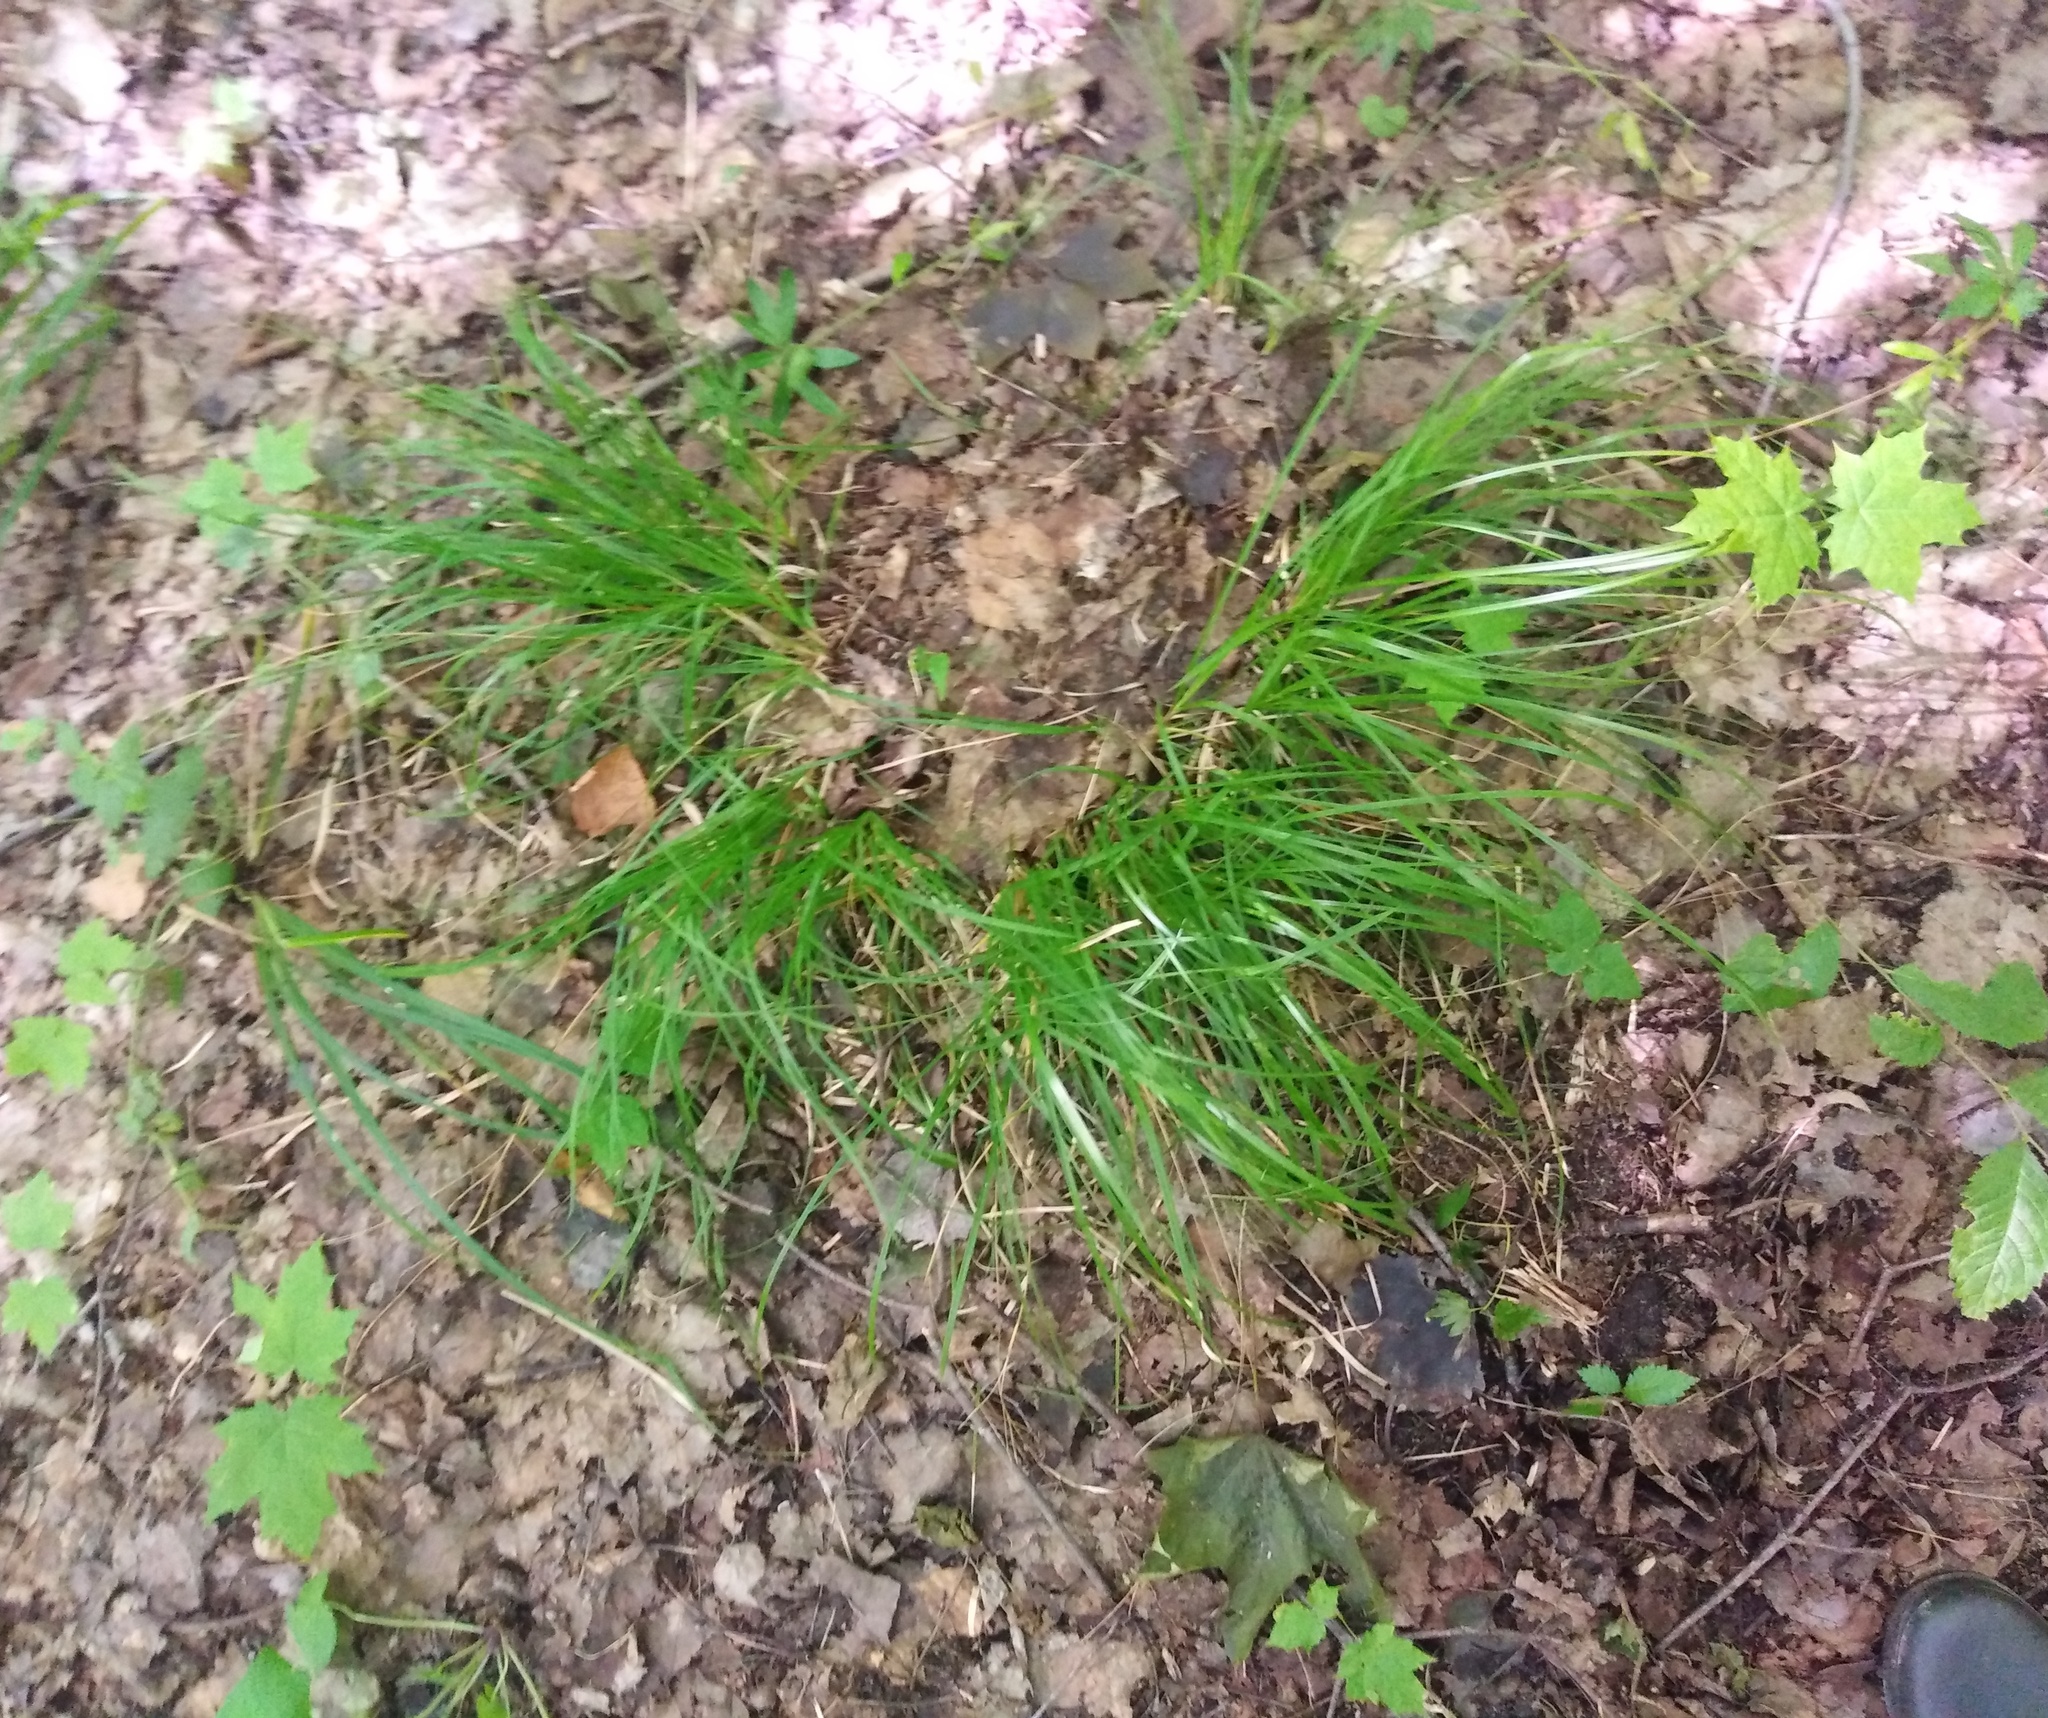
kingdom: Plantae
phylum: Tracheophyta
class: Liliopsida
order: Poales
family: Cyperaceae
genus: Carex
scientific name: Carex rhizina
